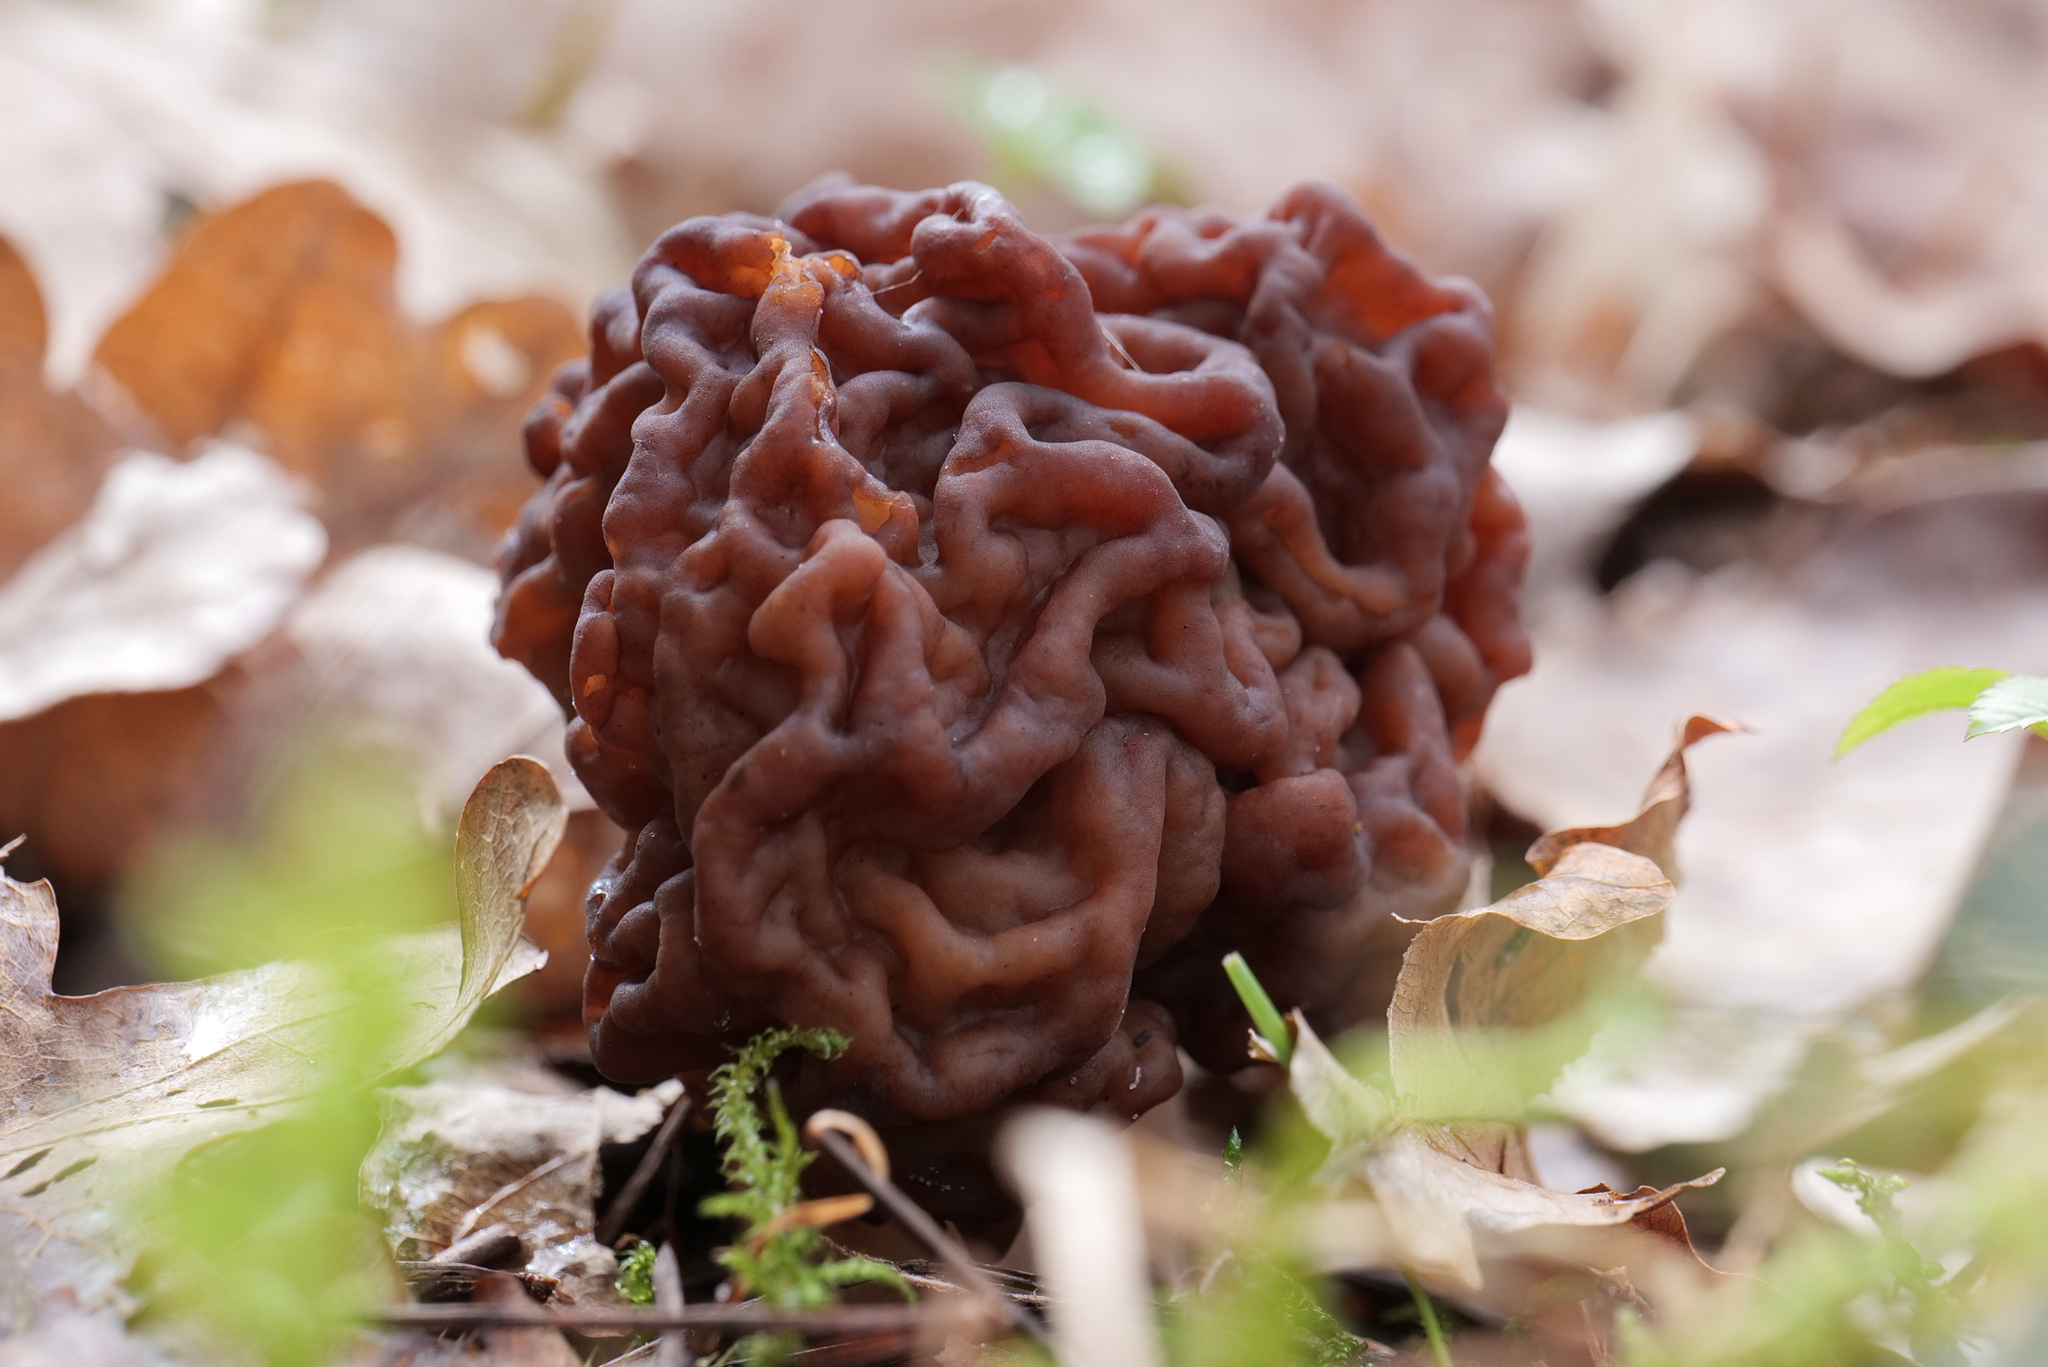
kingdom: Fungi
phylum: Ascomycota
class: Pezizomycetes
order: Pezizales
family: Discinaceae
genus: Gyromitra
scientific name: Gyromitra esculenta
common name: False morel
